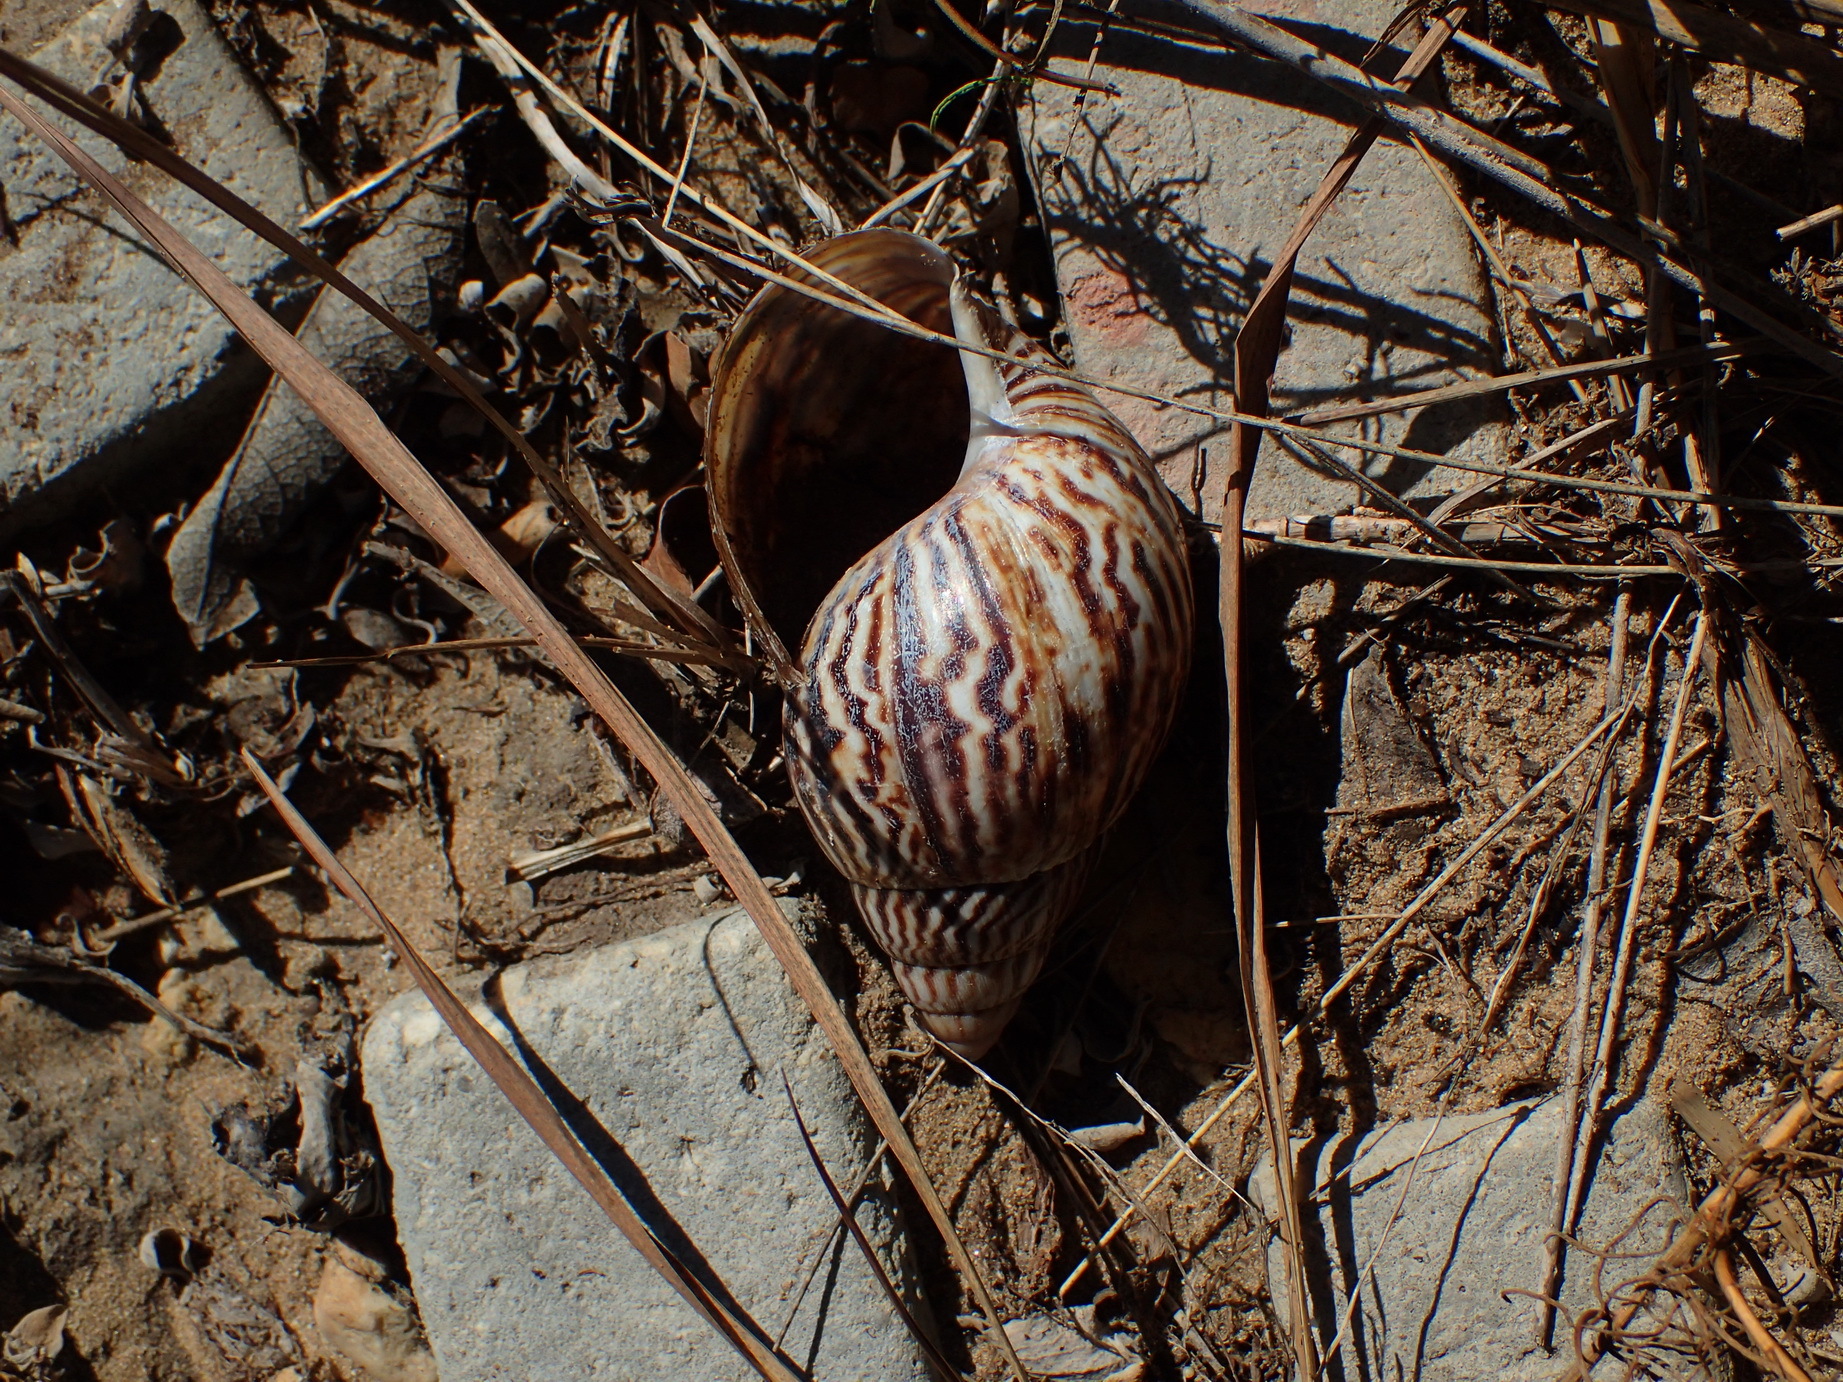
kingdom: Animalia
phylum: Mollusca
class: Gastropoda
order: Stylommatophora
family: Achatinidae
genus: Cochlitoma
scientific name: Cochlitoma zebra
